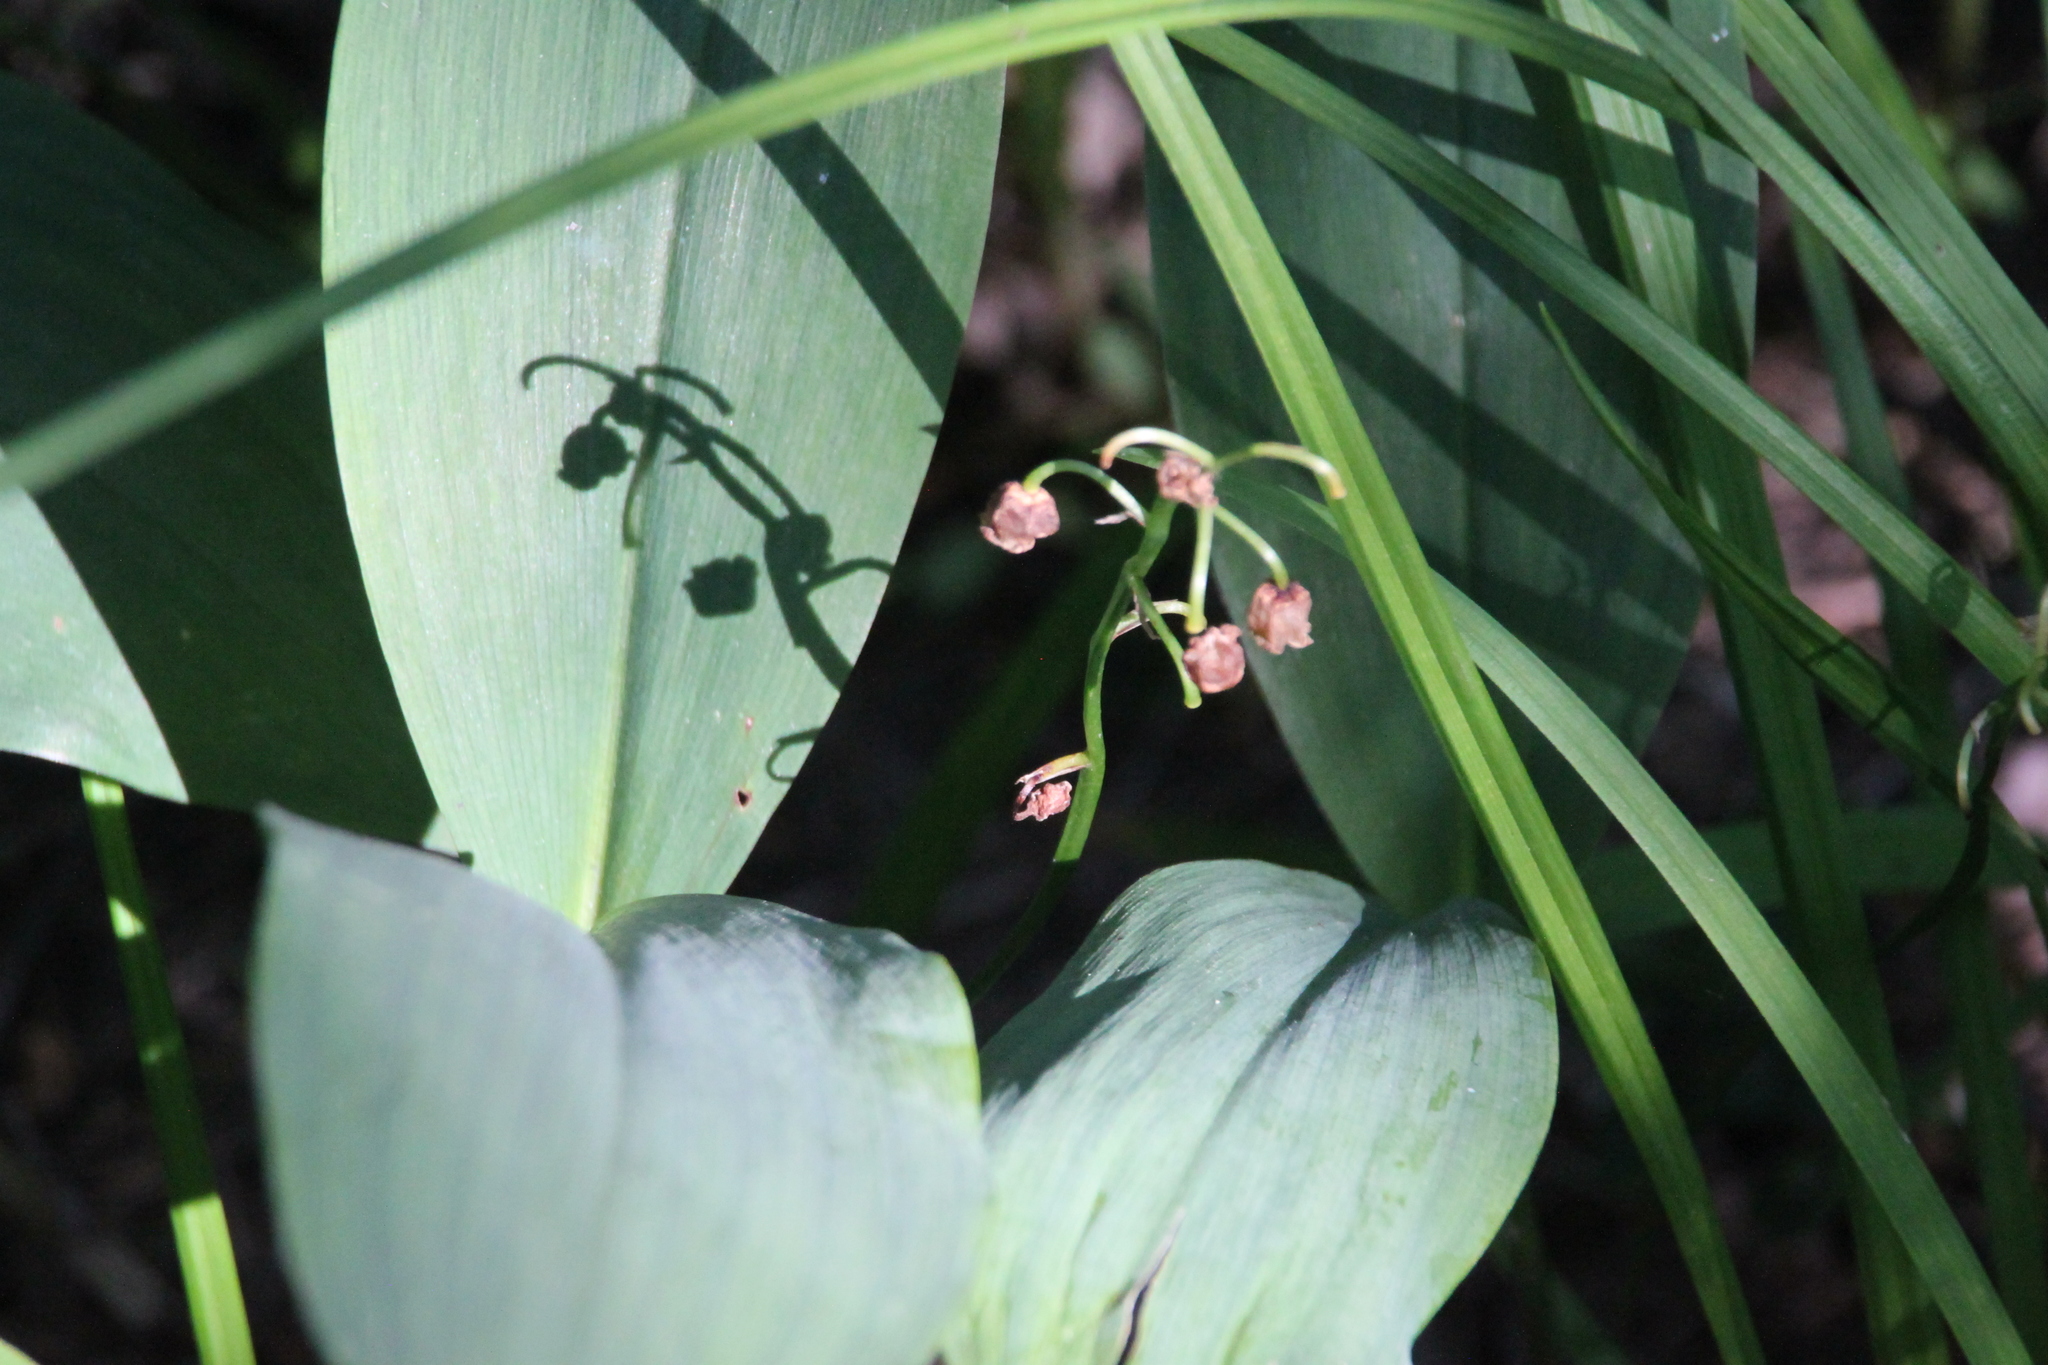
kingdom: Plantae
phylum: Tracheophyta
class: Liliopsida
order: Asparagales
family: Asparagaceae
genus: Convallaria
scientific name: Convallaria majalis
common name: Lily-of-the-valley
